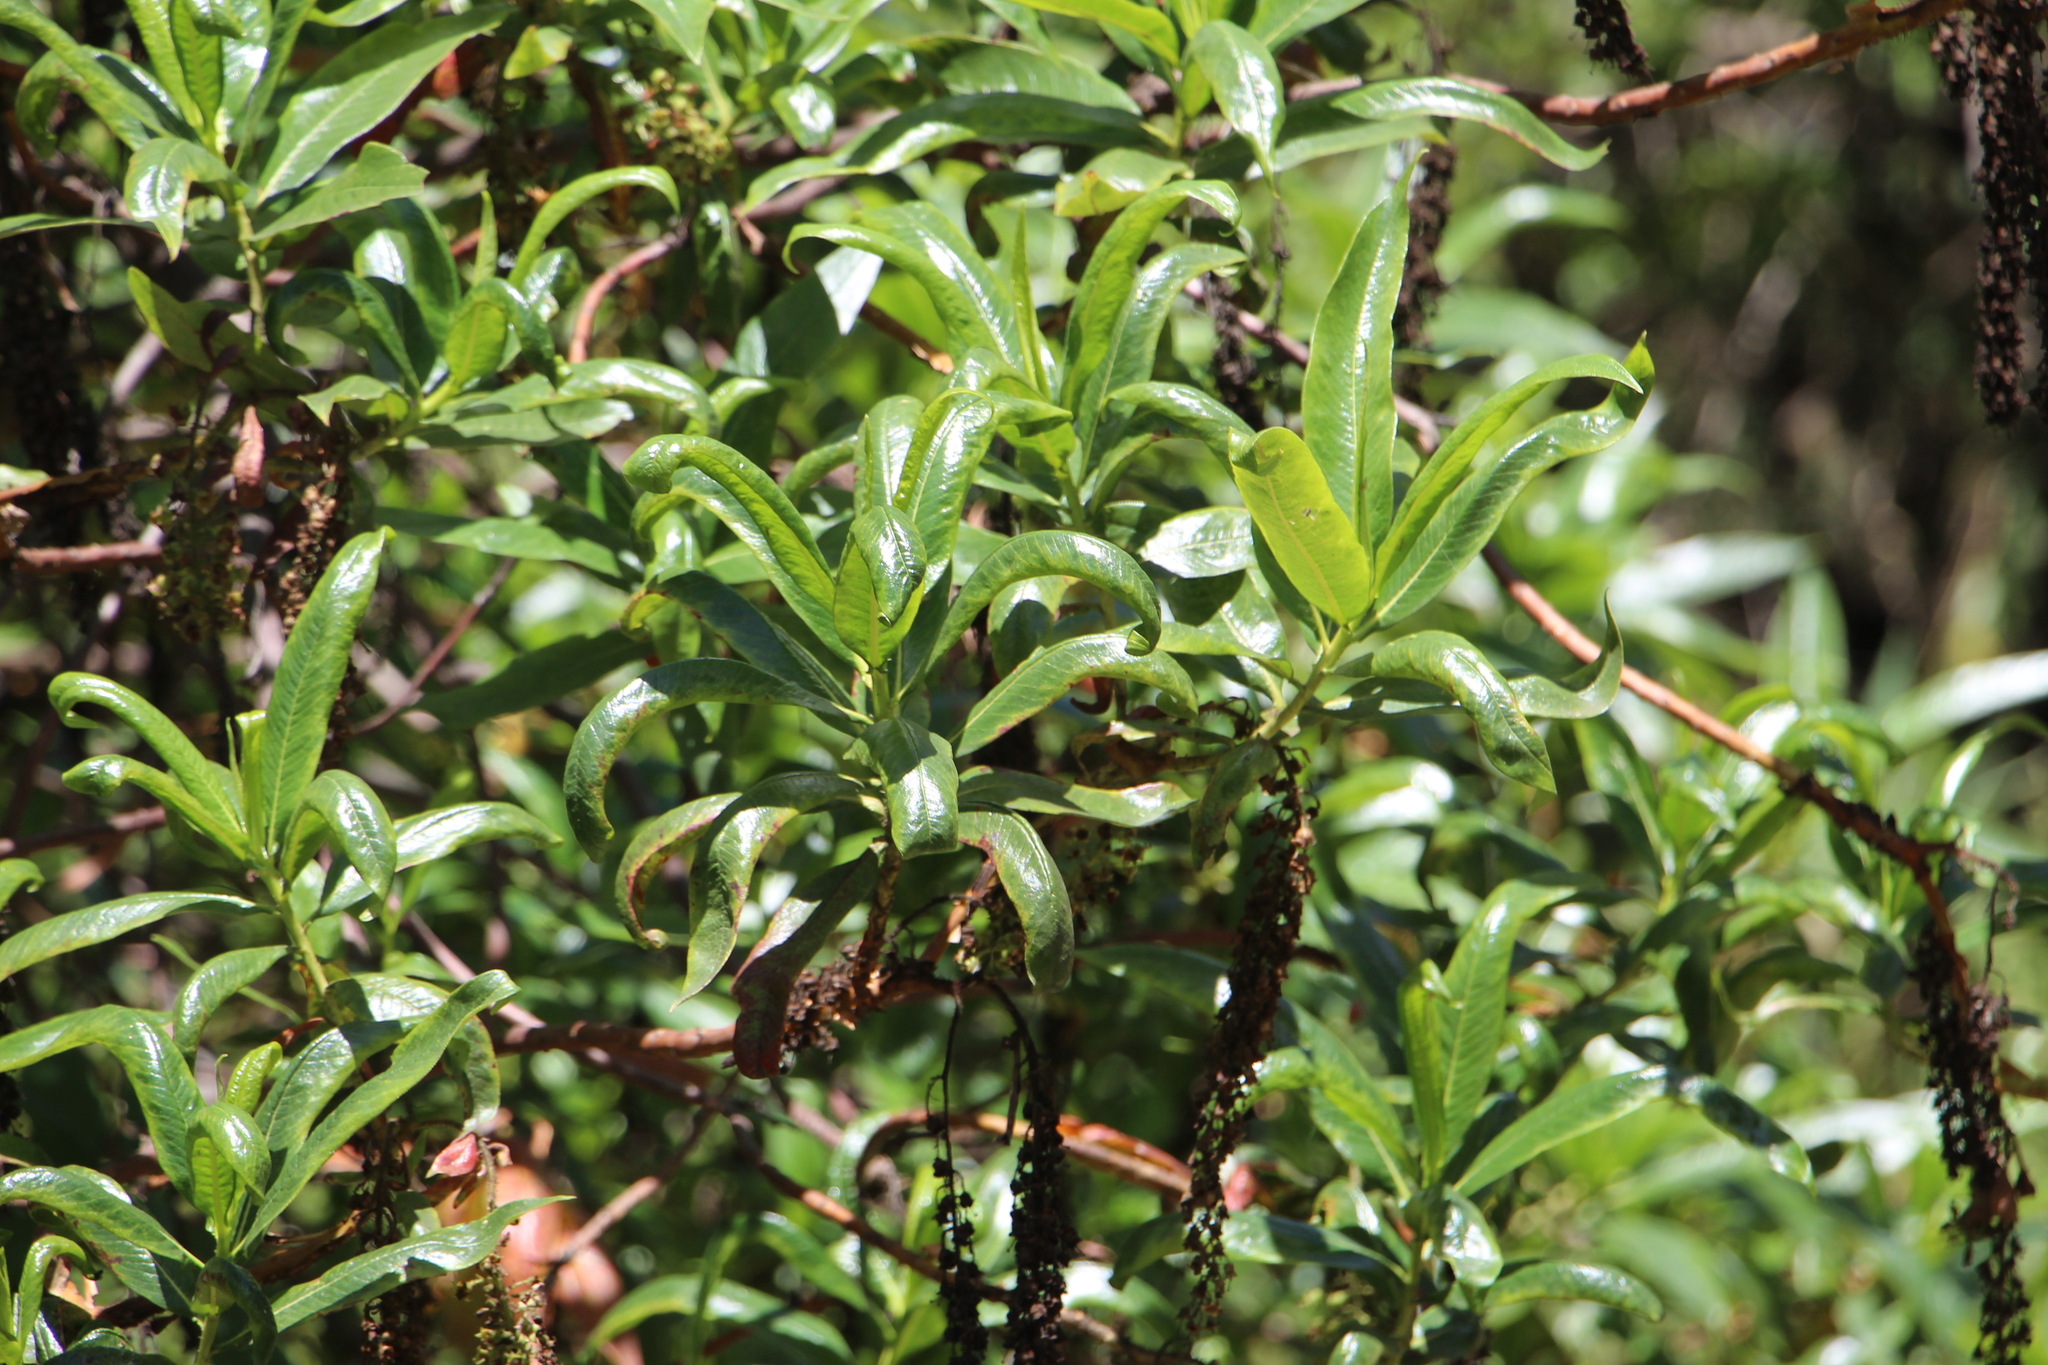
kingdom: Plantae
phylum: Tracheophyta
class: Magnoliopsida
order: Escalloniales
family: Escalloniaceae
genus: Escallonia
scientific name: Escallonia pendula
